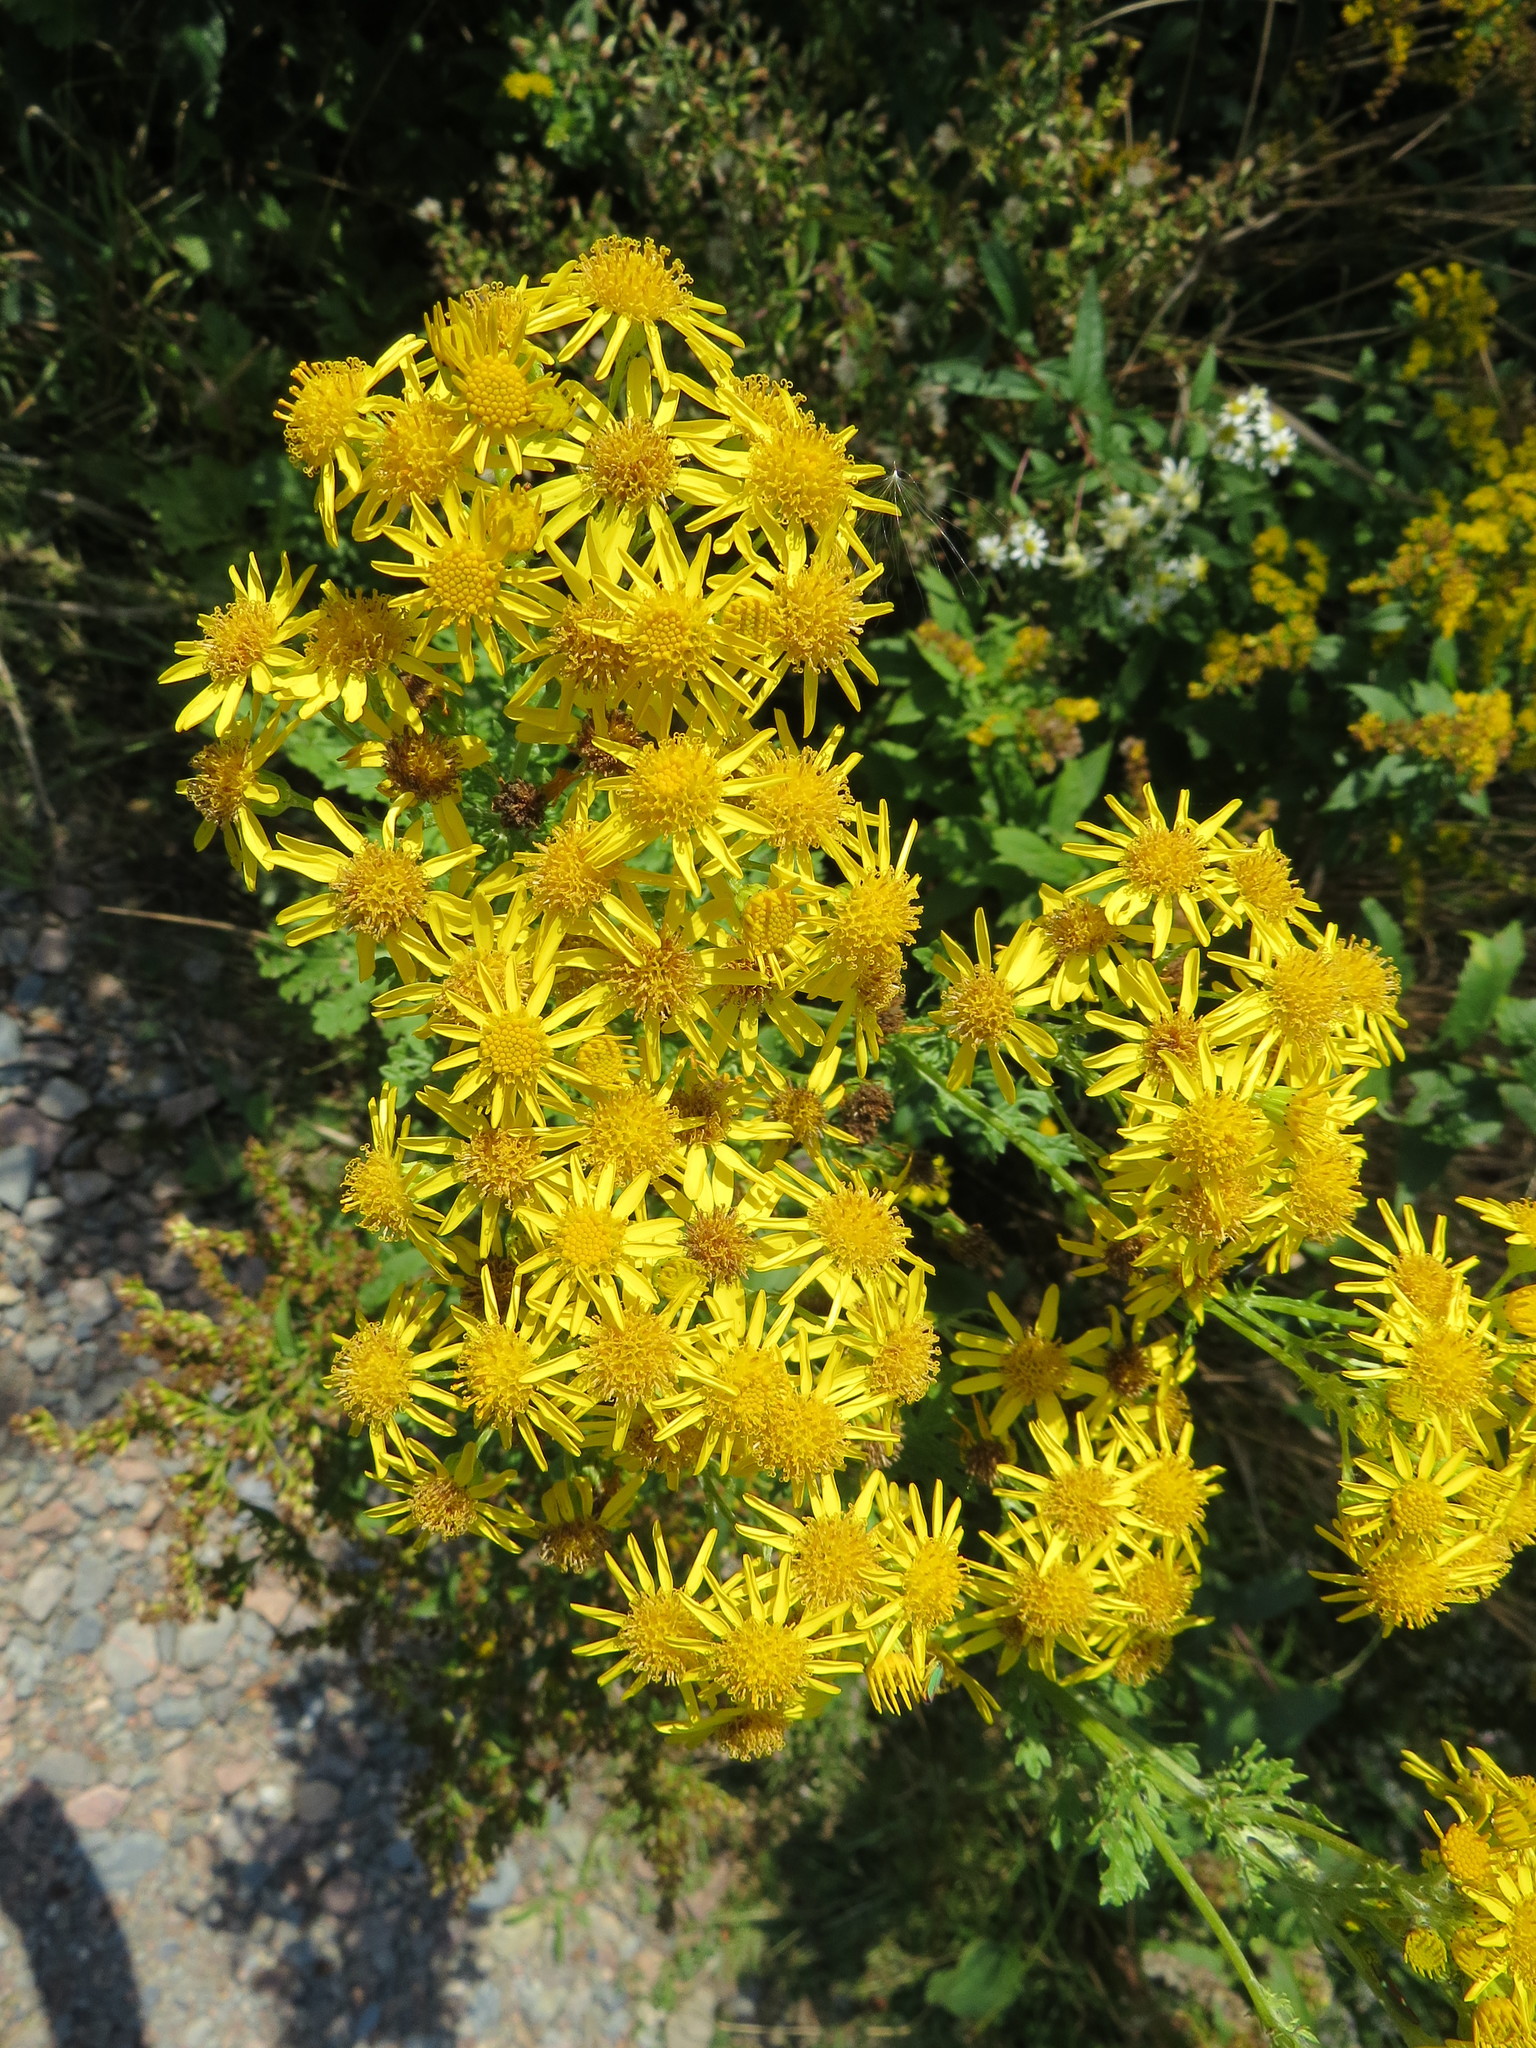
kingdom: Plantae
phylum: Tracheophyta
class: Magnoliopsida
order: Asterales
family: Asteraceae
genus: Jacobaea
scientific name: Jacobaea vulgaris
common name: Stinking willie
